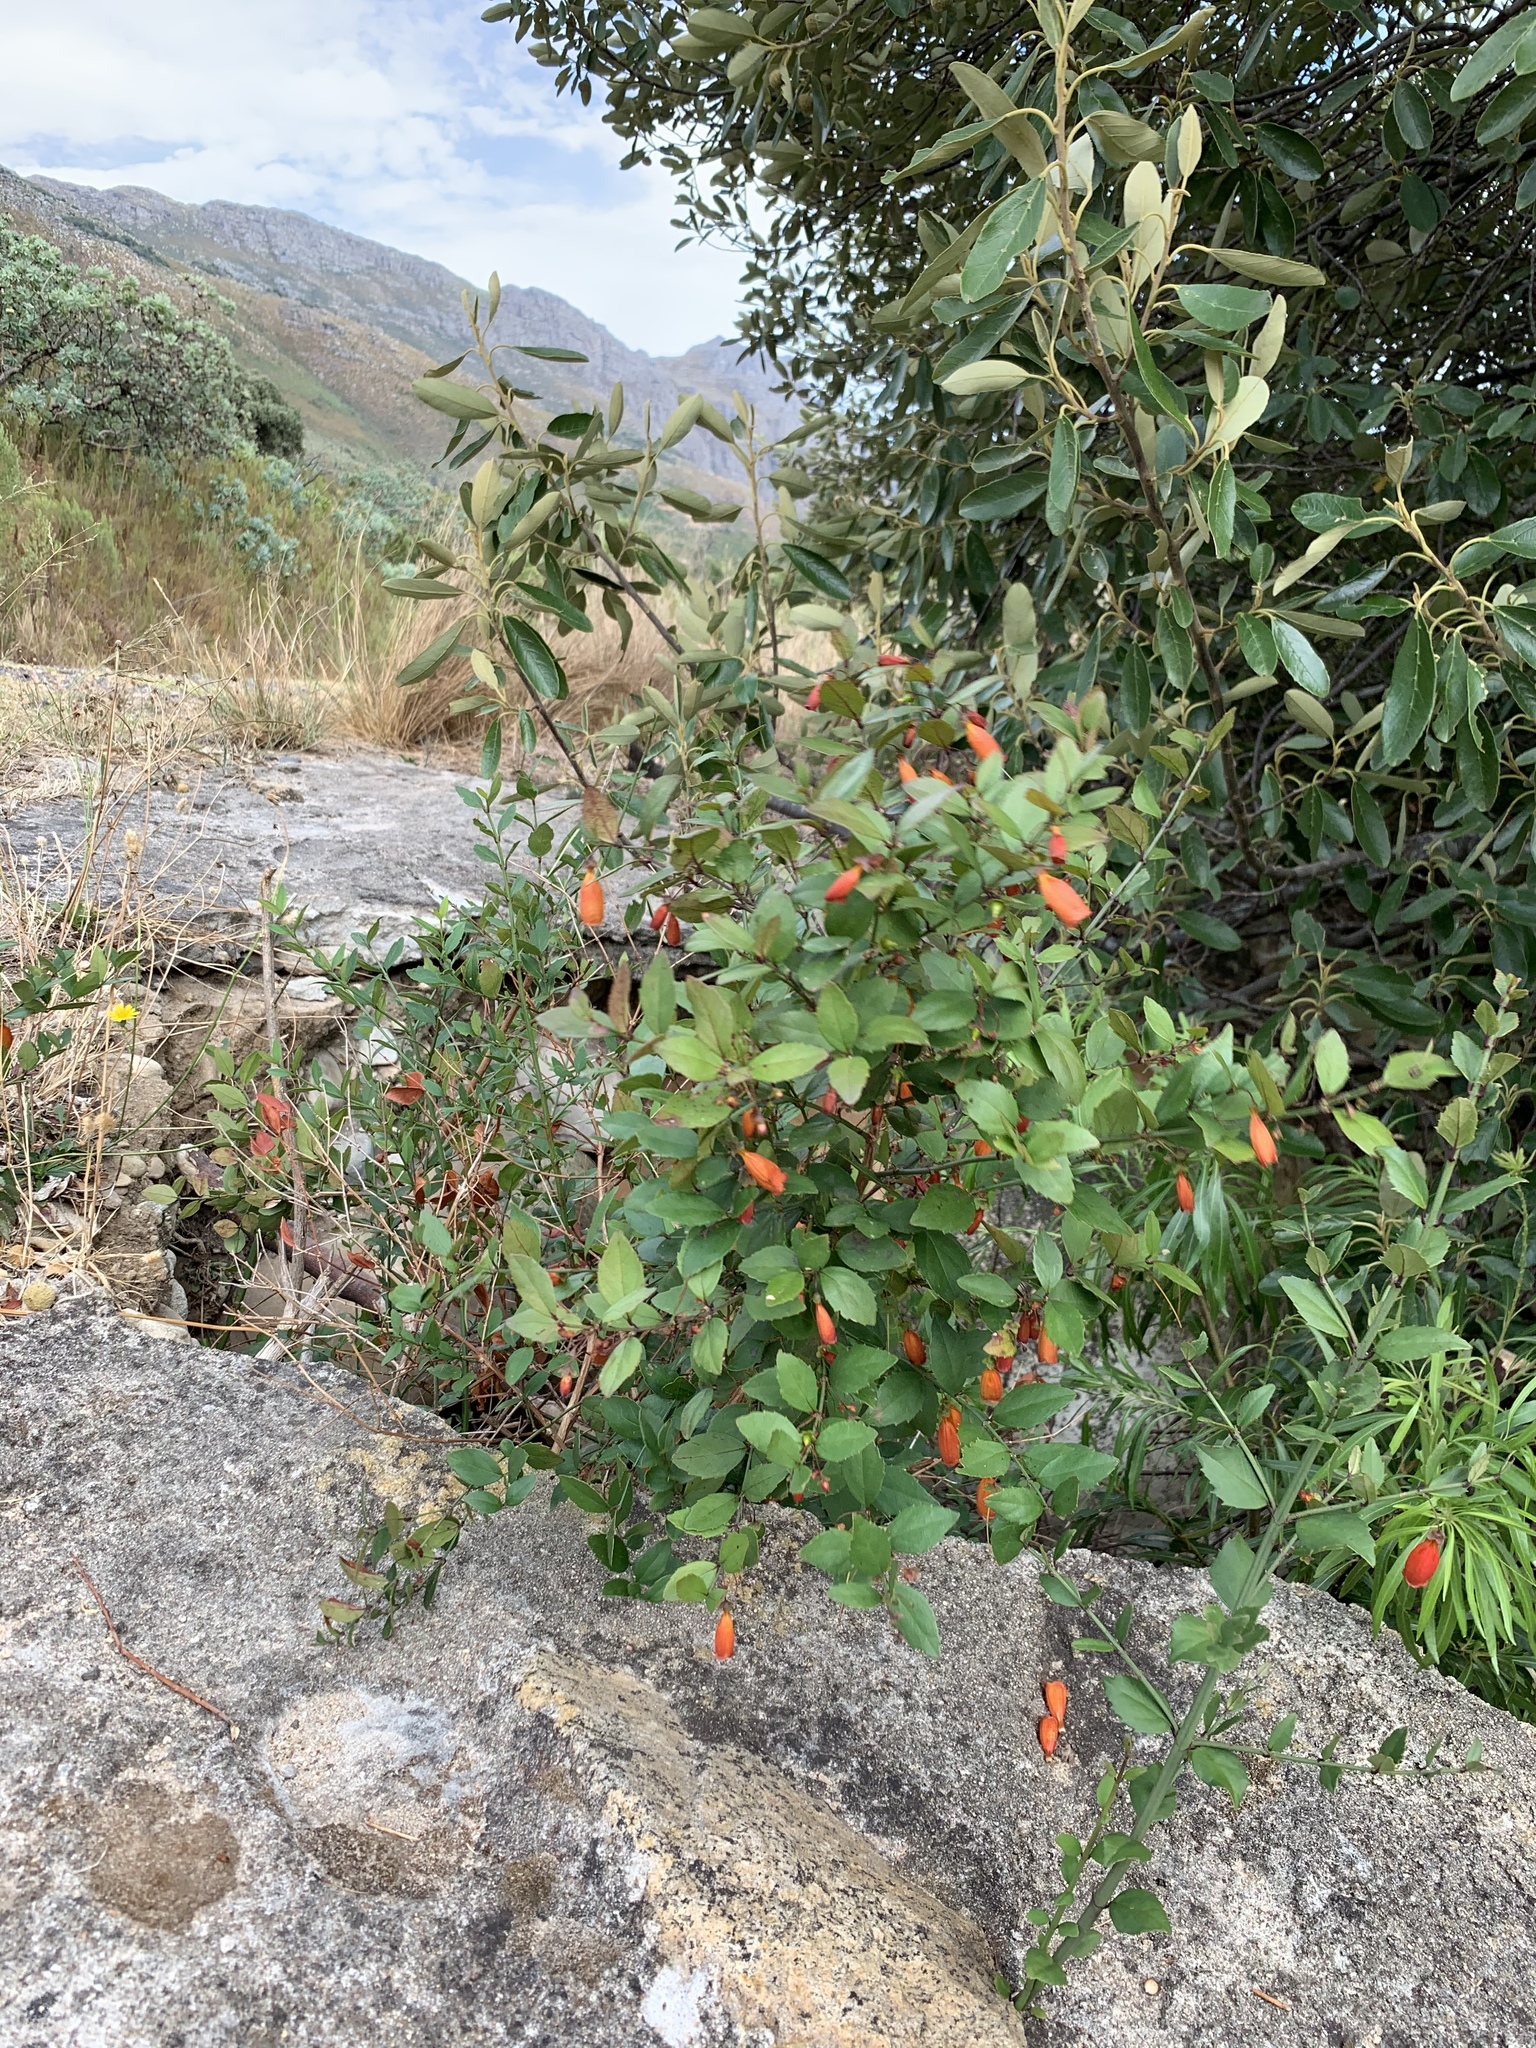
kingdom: Plantae
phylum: Tracheophyta
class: Magnoliopsida
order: Lamiales
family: Stilbaceae
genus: Halleria
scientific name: Halleria elliptica
